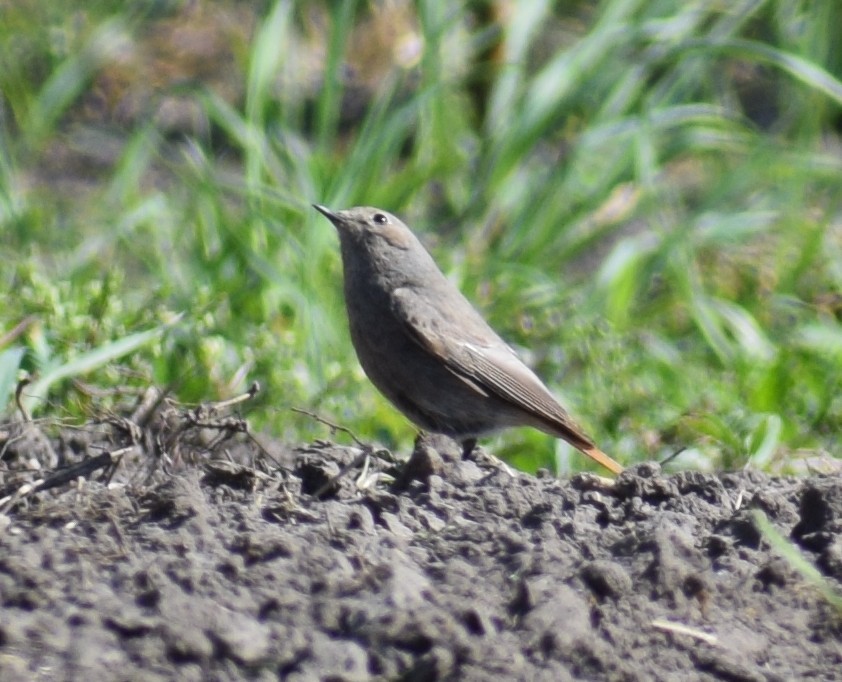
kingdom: Animalia
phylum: Chordata
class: Aves
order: Passeriformes
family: Muscicapidae
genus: Phoenicurus
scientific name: Phoenicurus ochruros
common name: Black redstart
